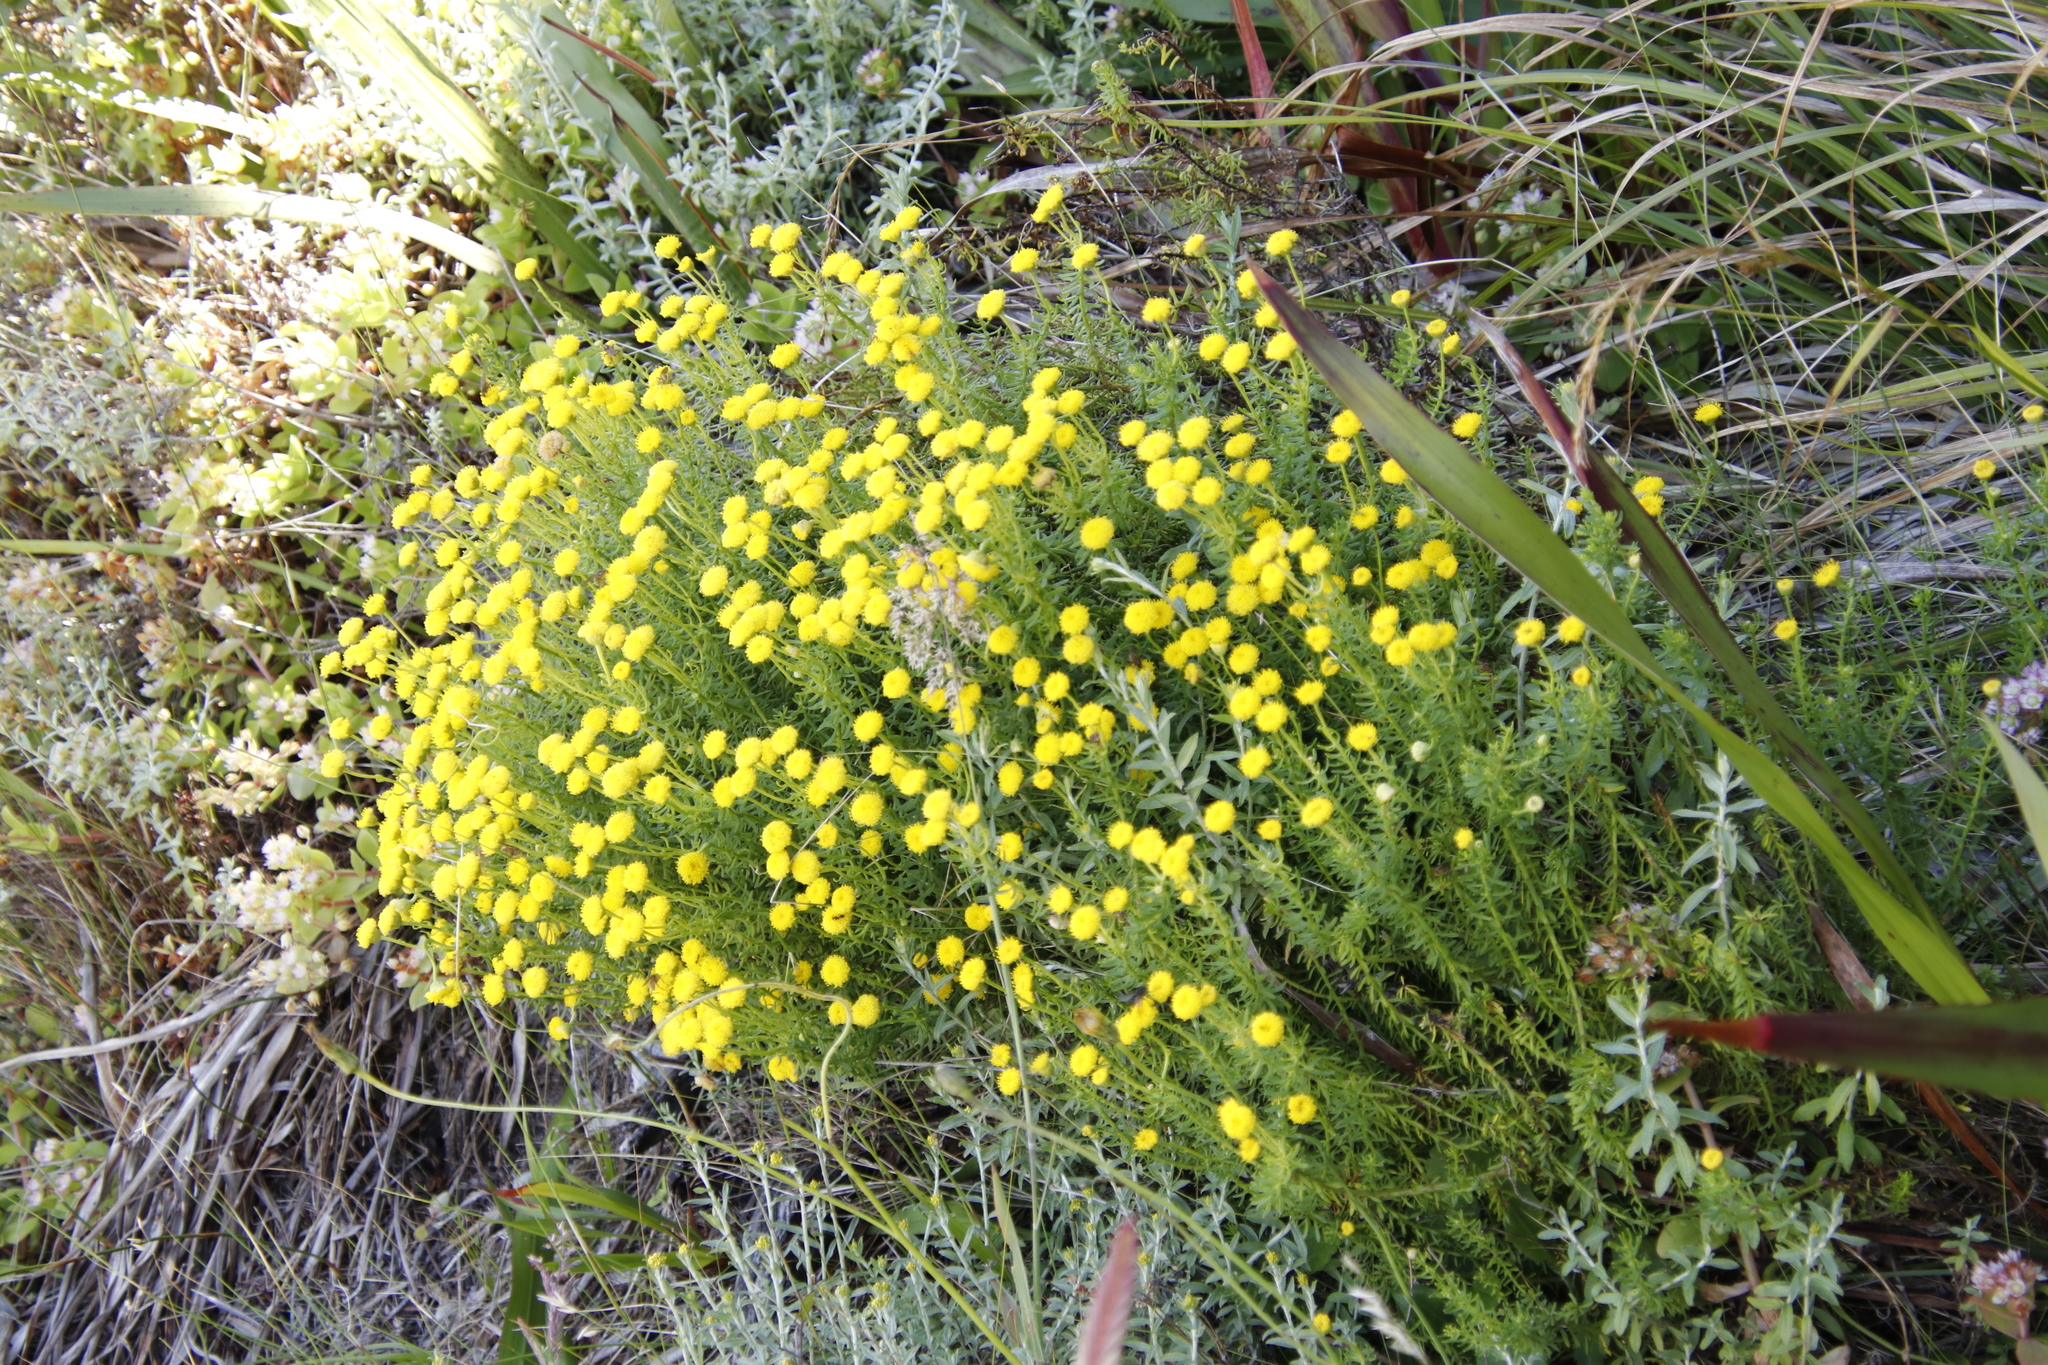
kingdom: Plantae
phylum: Tracheophyta
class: Magnoliopsida
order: Asterales
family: Asteraceae
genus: Chrysocoma
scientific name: Chrysocoma cernua
